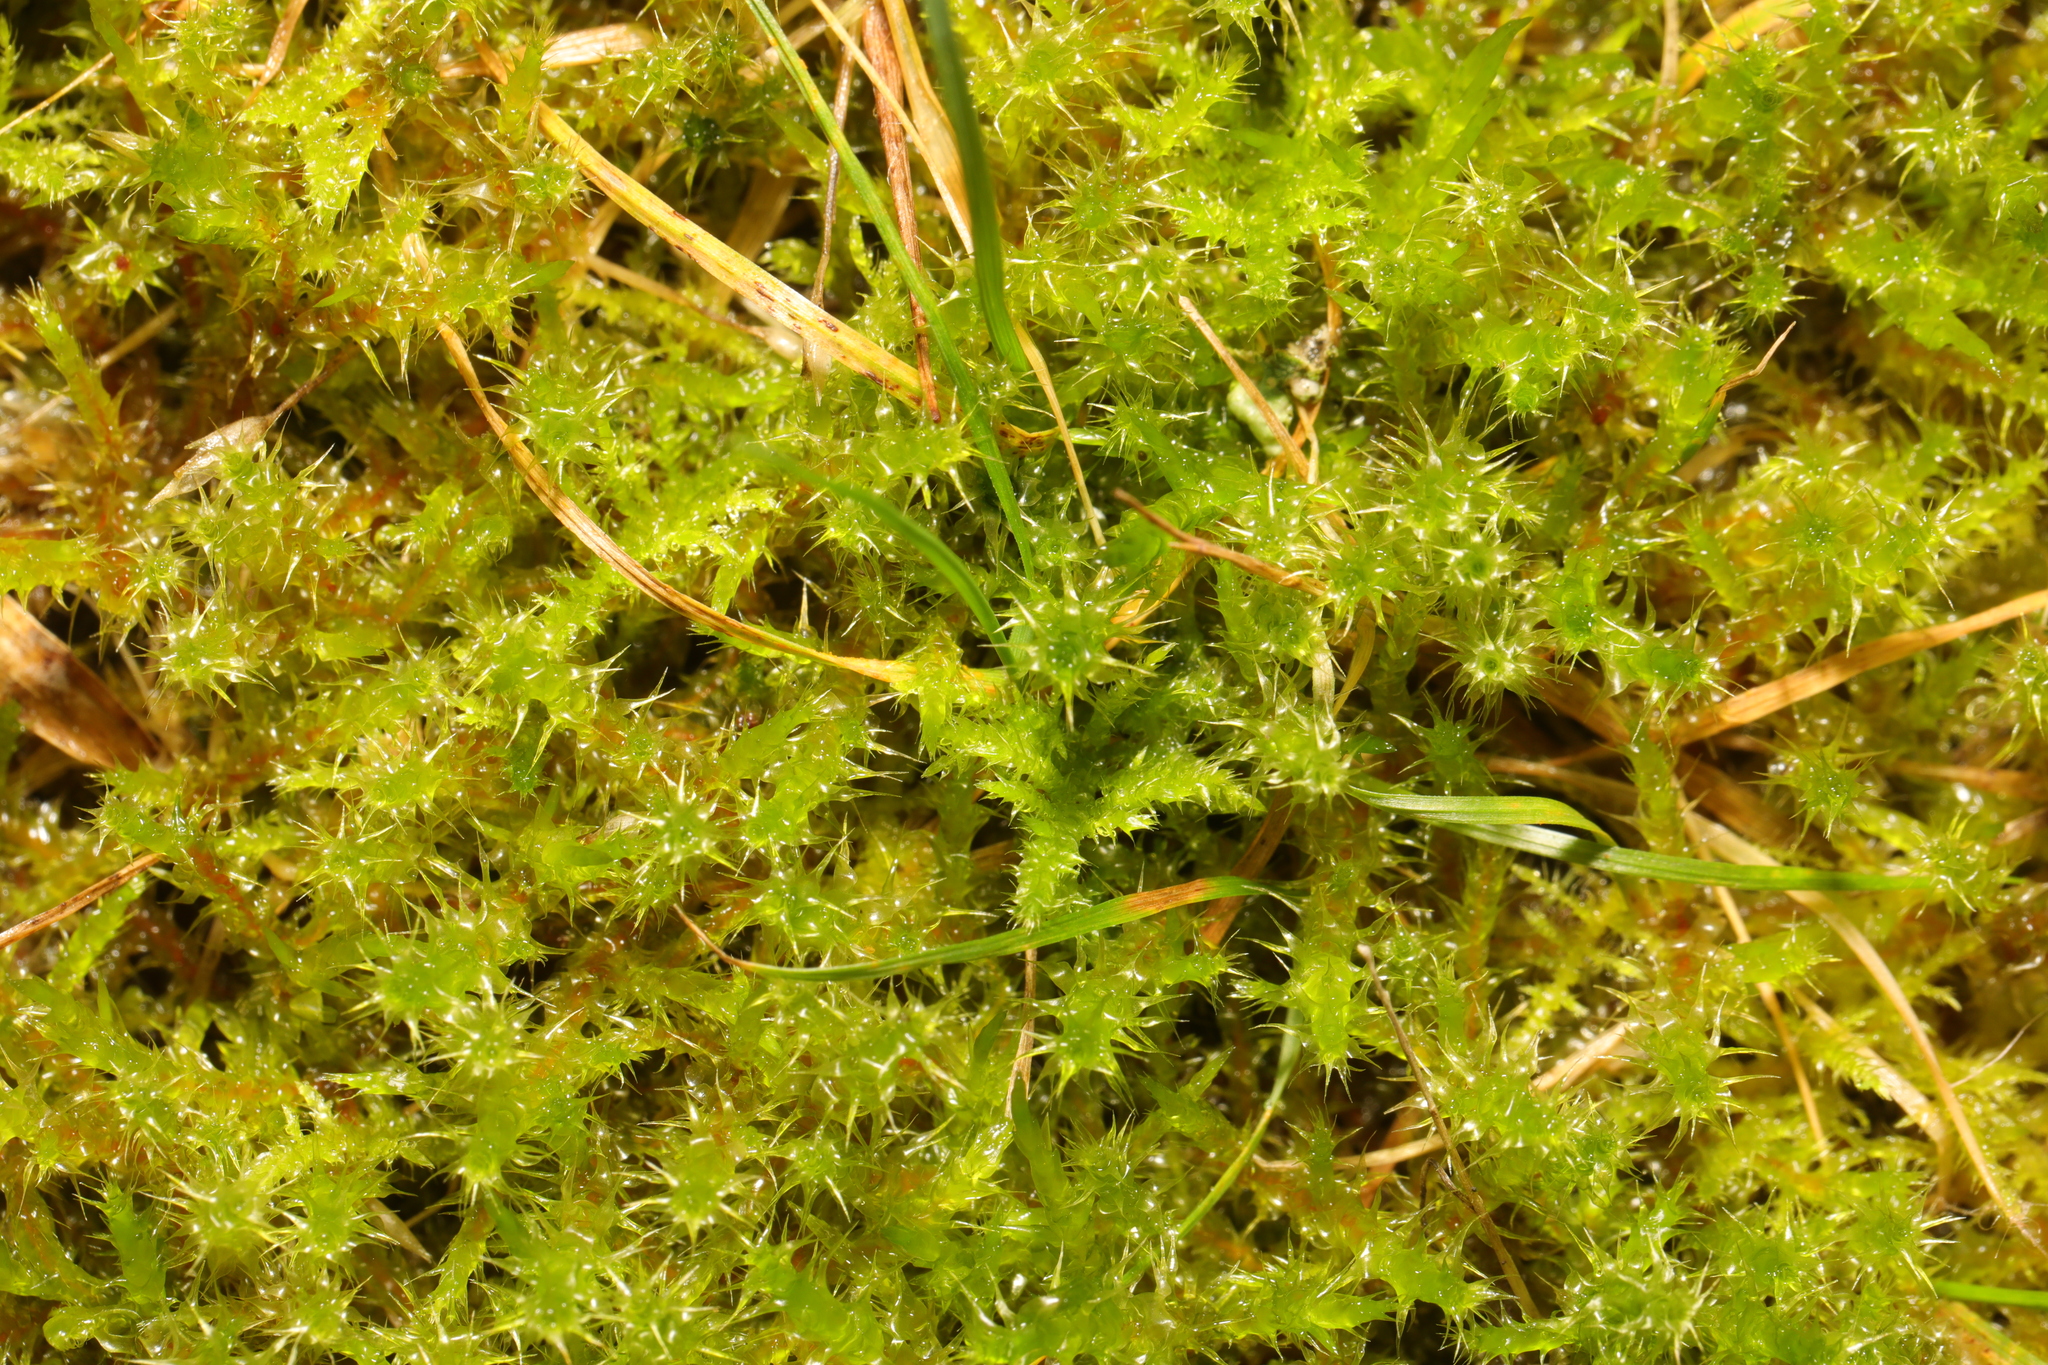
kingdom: Plantae
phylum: Bryophyta
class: Bryopsida
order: Hypnales
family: Hylocomiaceae
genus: Rhytidiadelphus
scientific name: Rhytidiadelphus squarrosus
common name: Springy turf-moss
